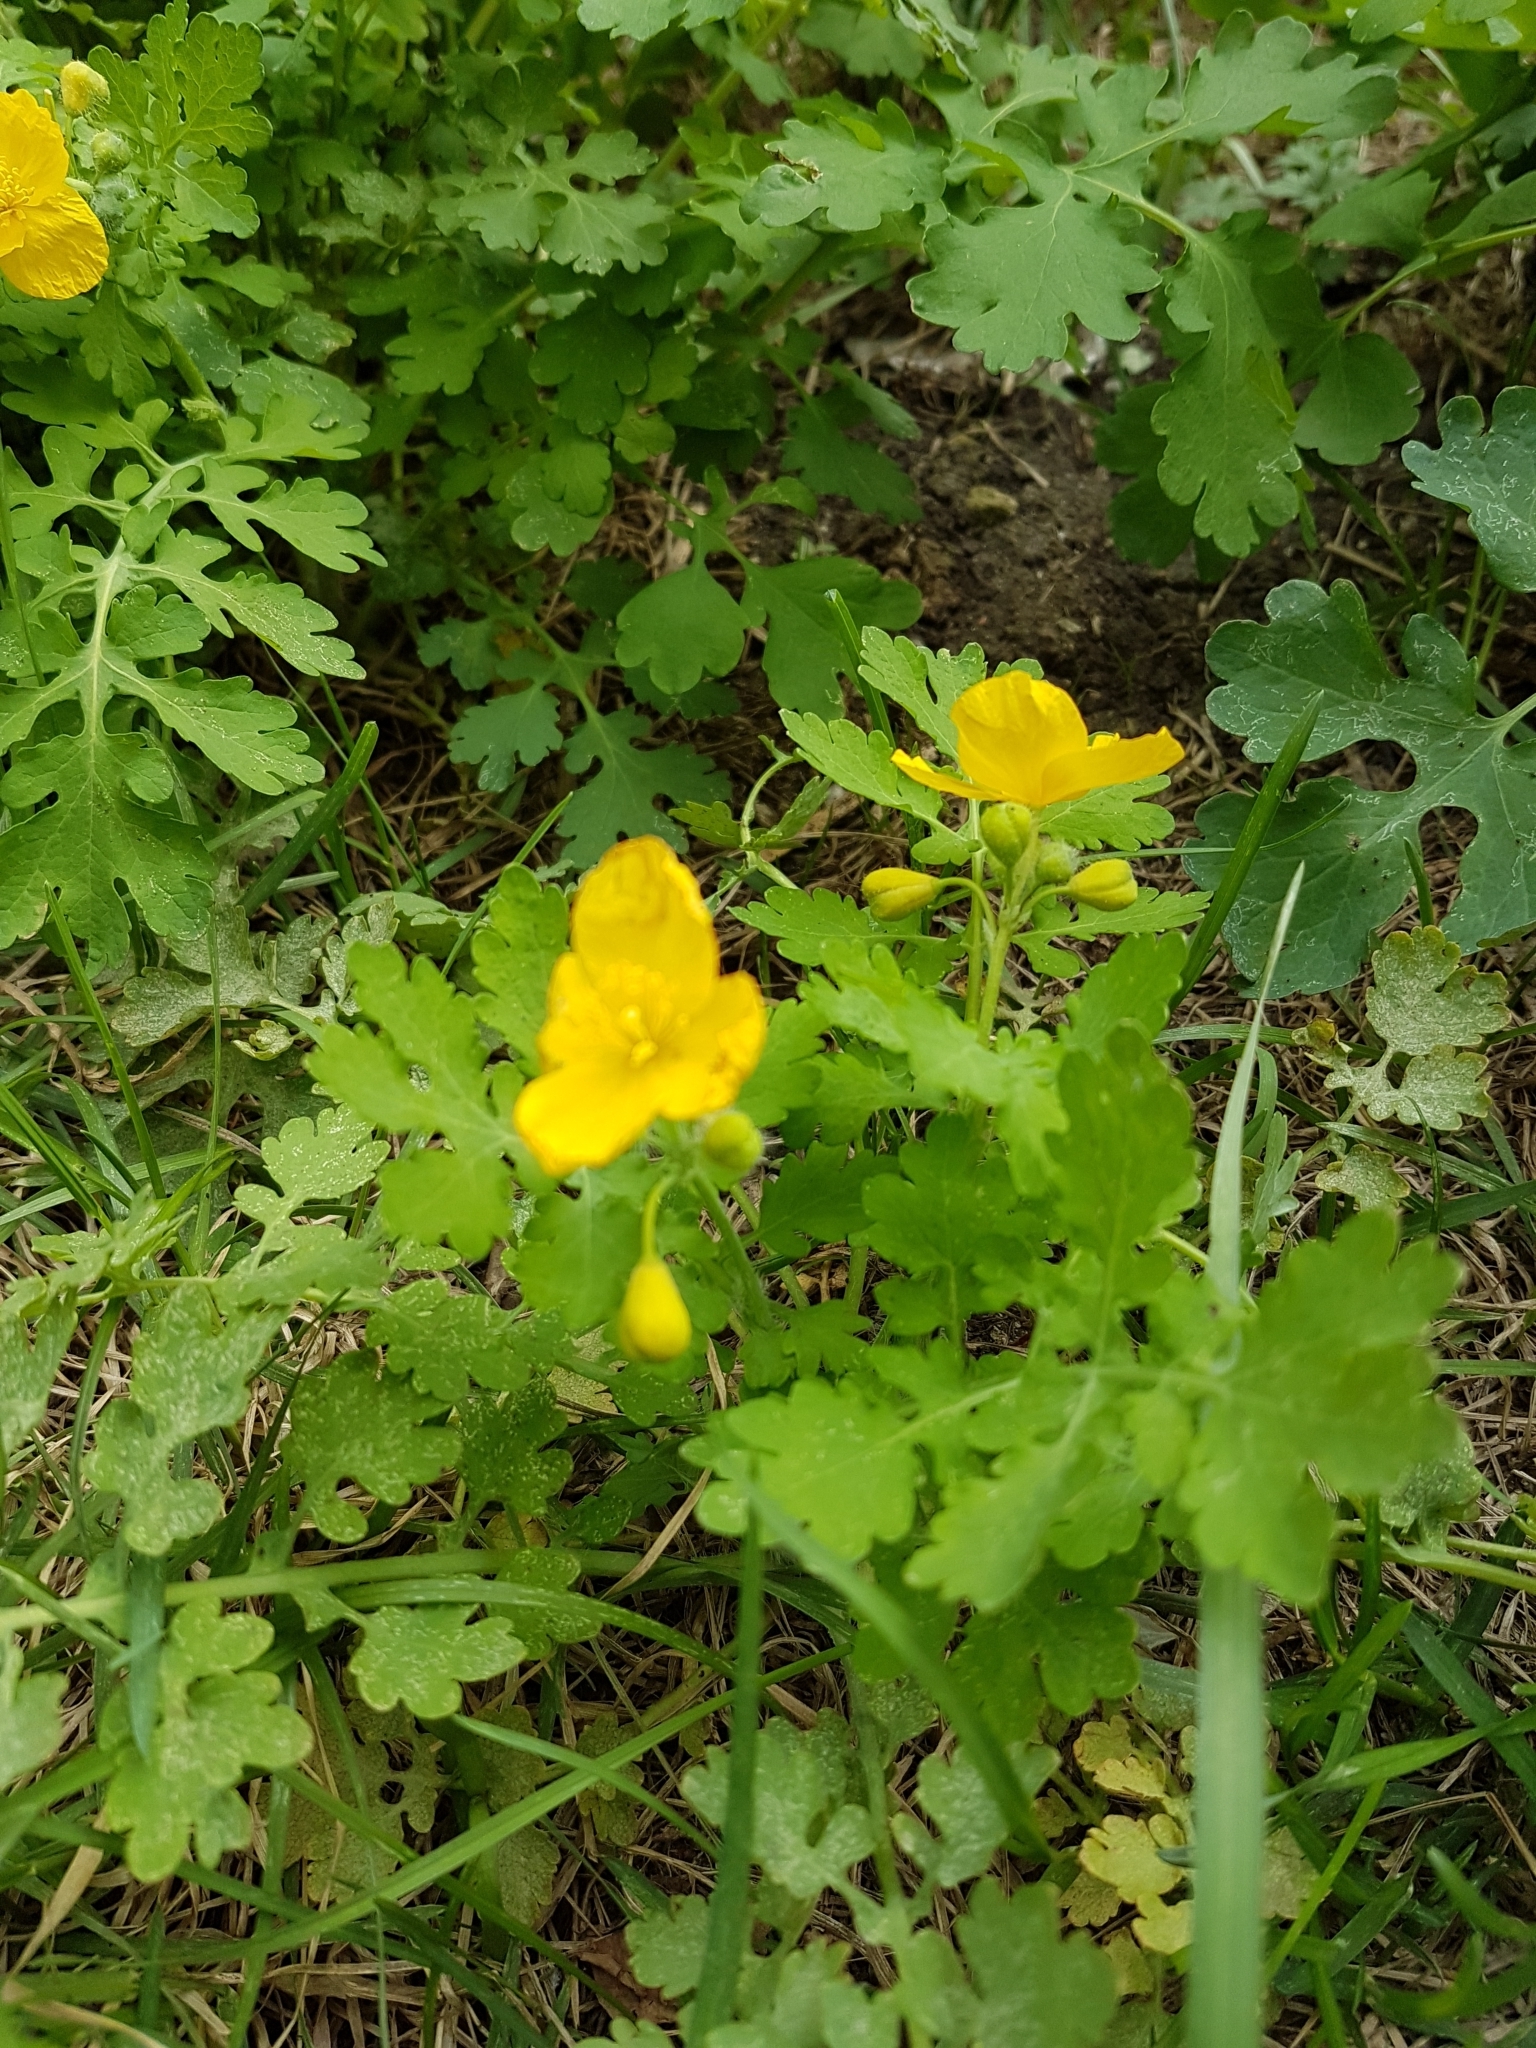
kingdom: Plantae
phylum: Tracheophyta
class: Magnoliopsida
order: Ranunculales
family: Papaveraceae
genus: Chelidonium
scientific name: Chelidonium majus
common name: Greater celandine
